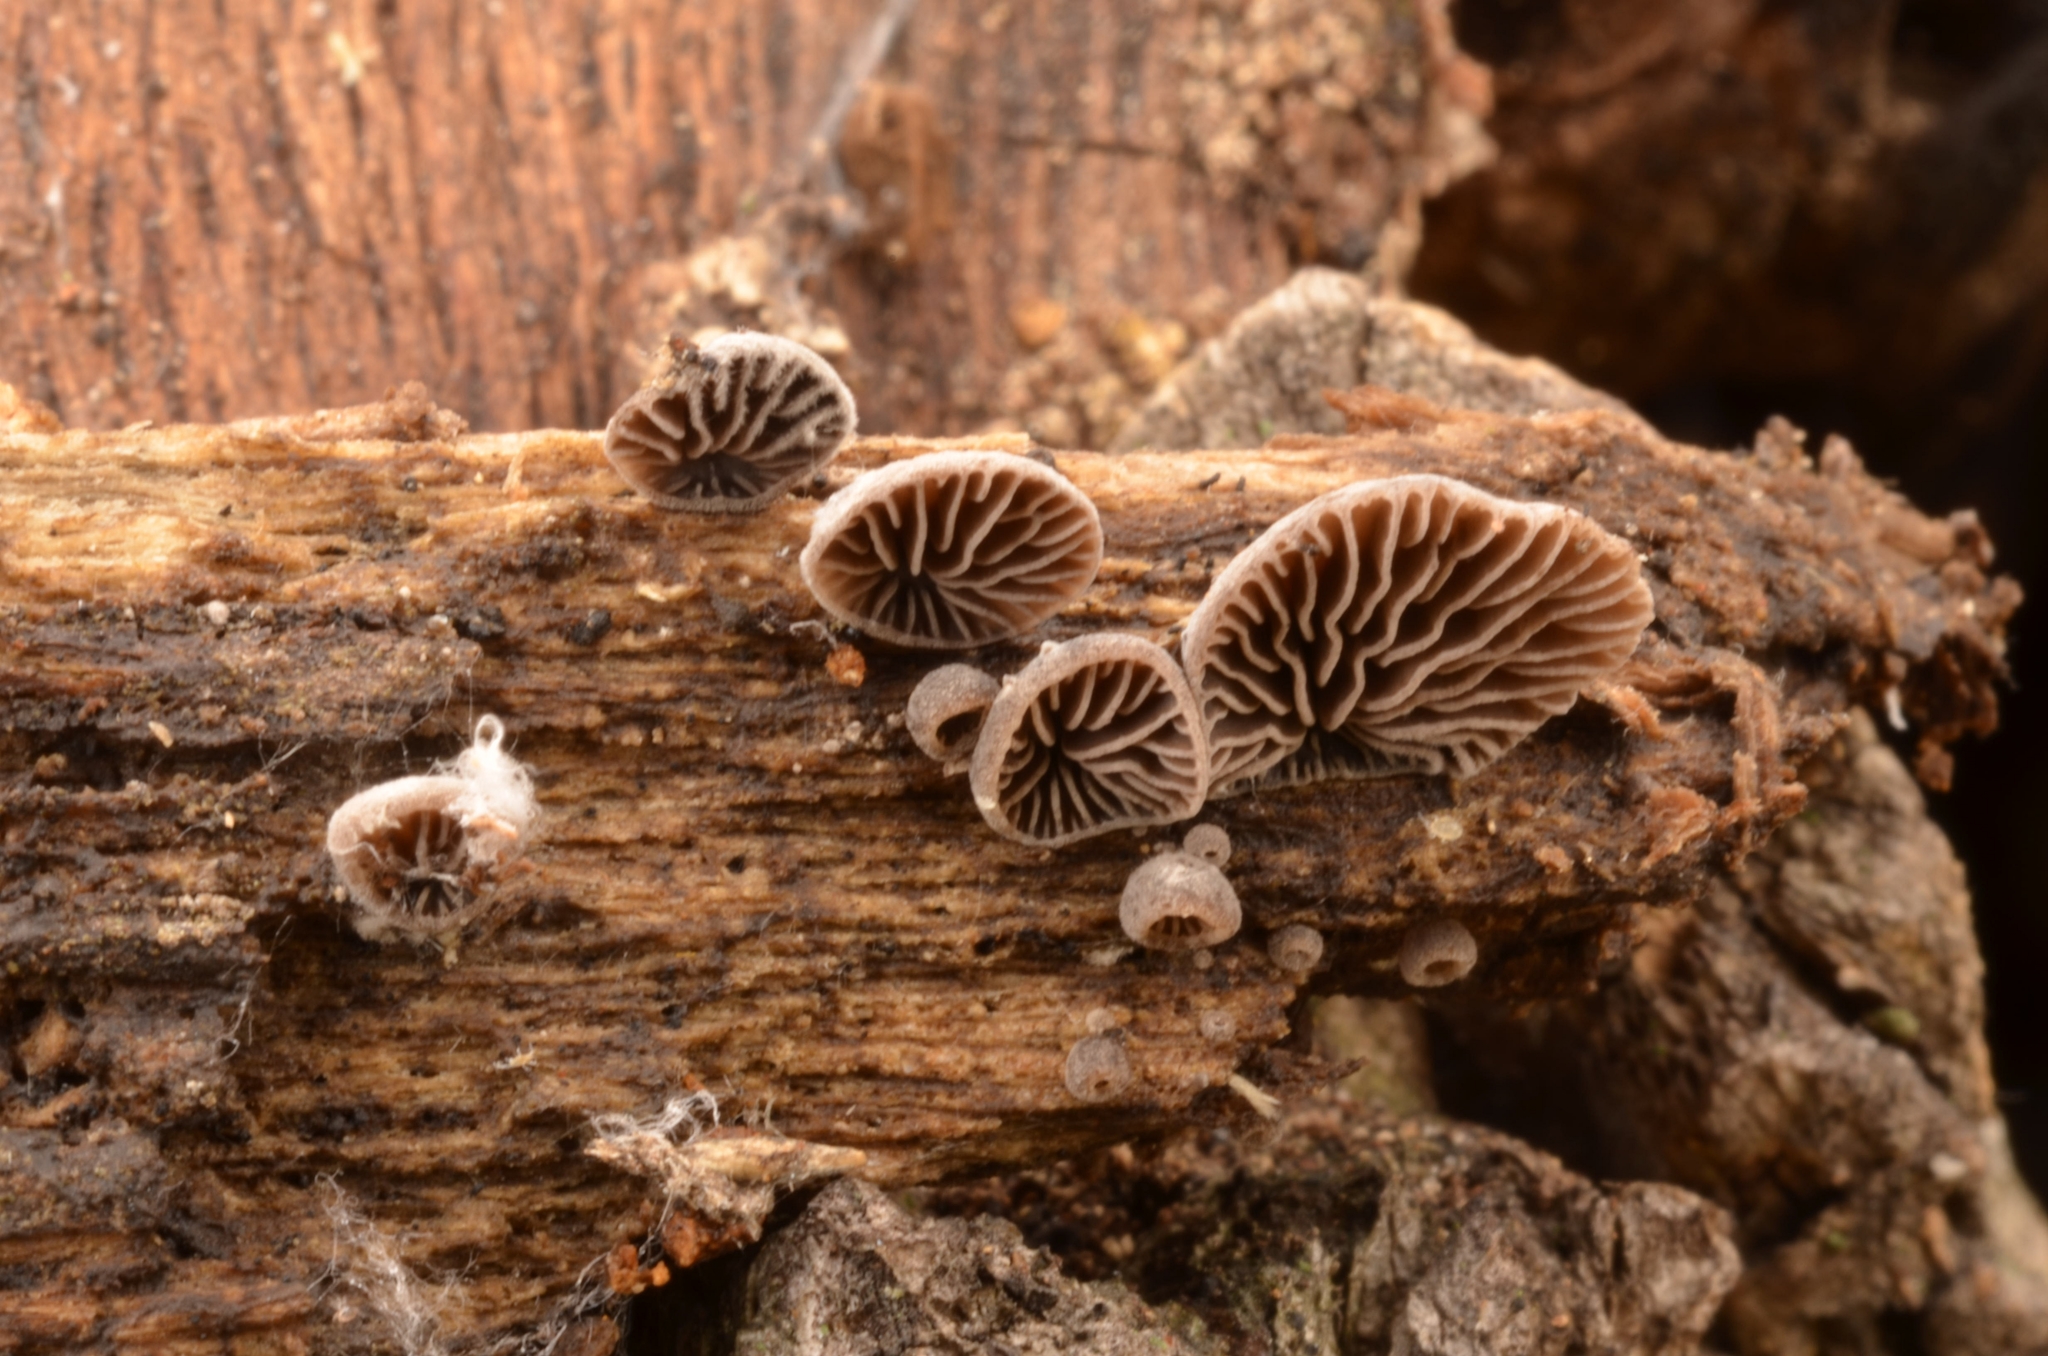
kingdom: Fungi
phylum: Basidiomycota
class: Agaricomycetes
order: Agaricales
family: Pleurotaceae
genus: Resupinatus
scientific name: Resupinatus applicatus
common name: Smoked oysterling
